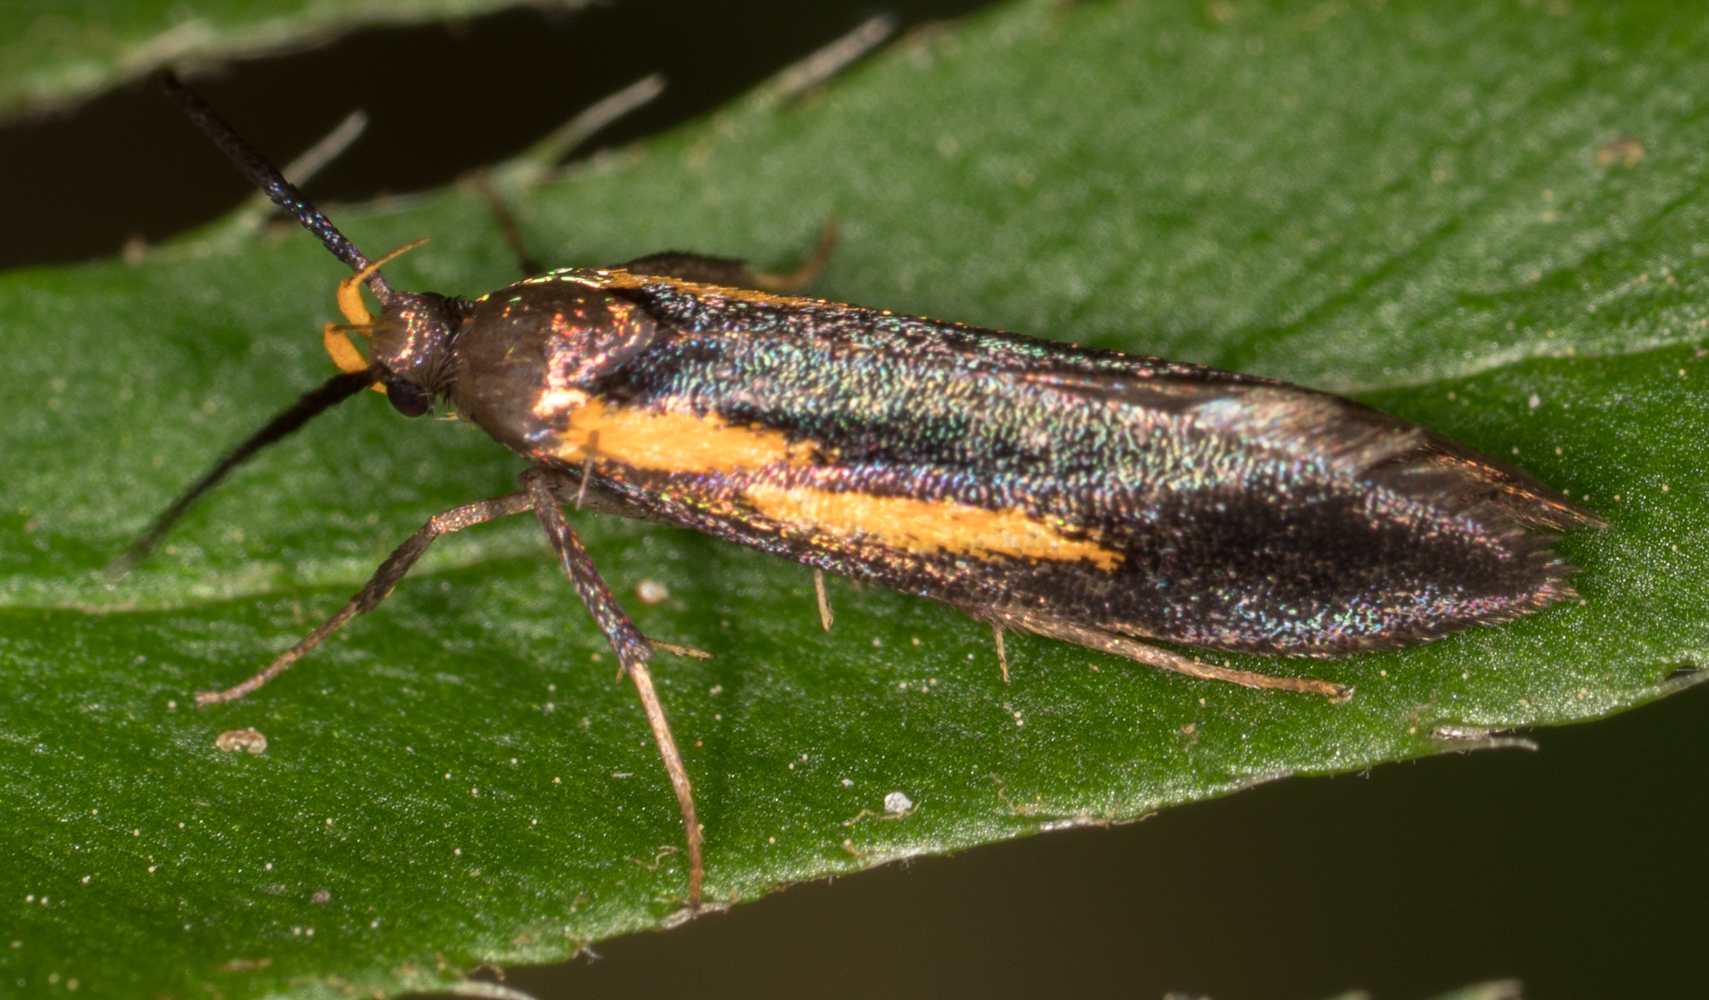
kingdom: Animalia
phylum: Arthropoda
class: Insecta
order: Lepidoptera
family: Oecophoridae
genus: Mathildana
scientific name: Mathildana newmanella
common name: Newman's mathildana moth
